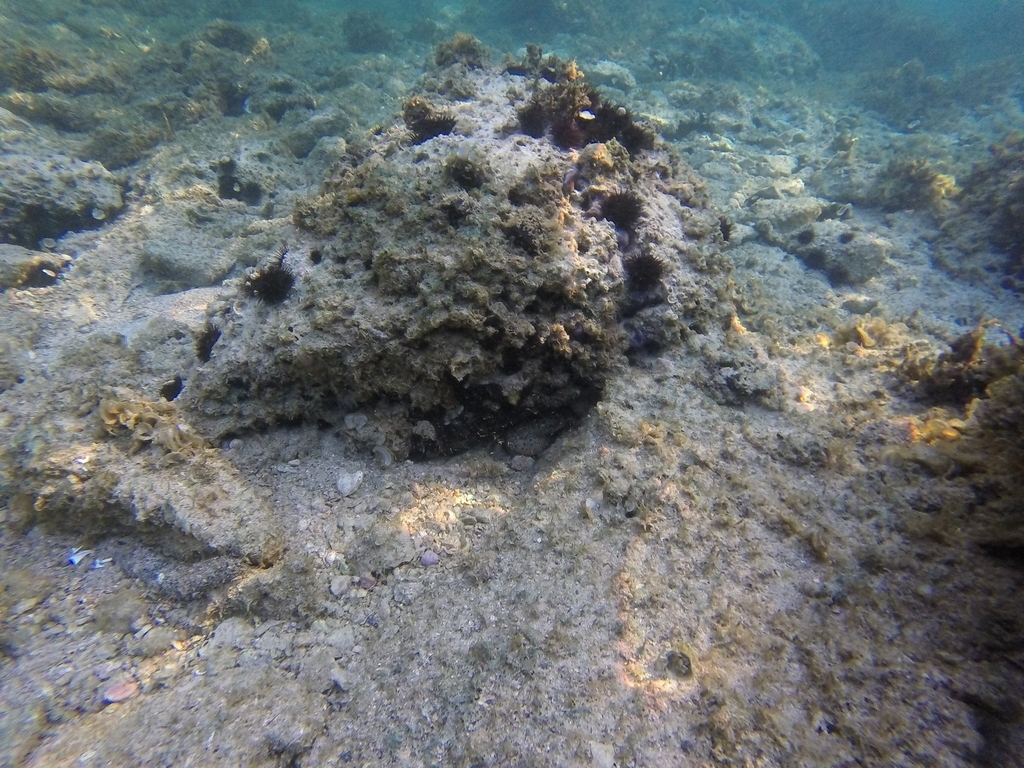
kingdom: Animalia
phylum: Arthropoda
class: Malacostraca
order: Decapoda
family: Eriphiidae
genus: Eriphia
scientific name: Eriphia verrucosa
